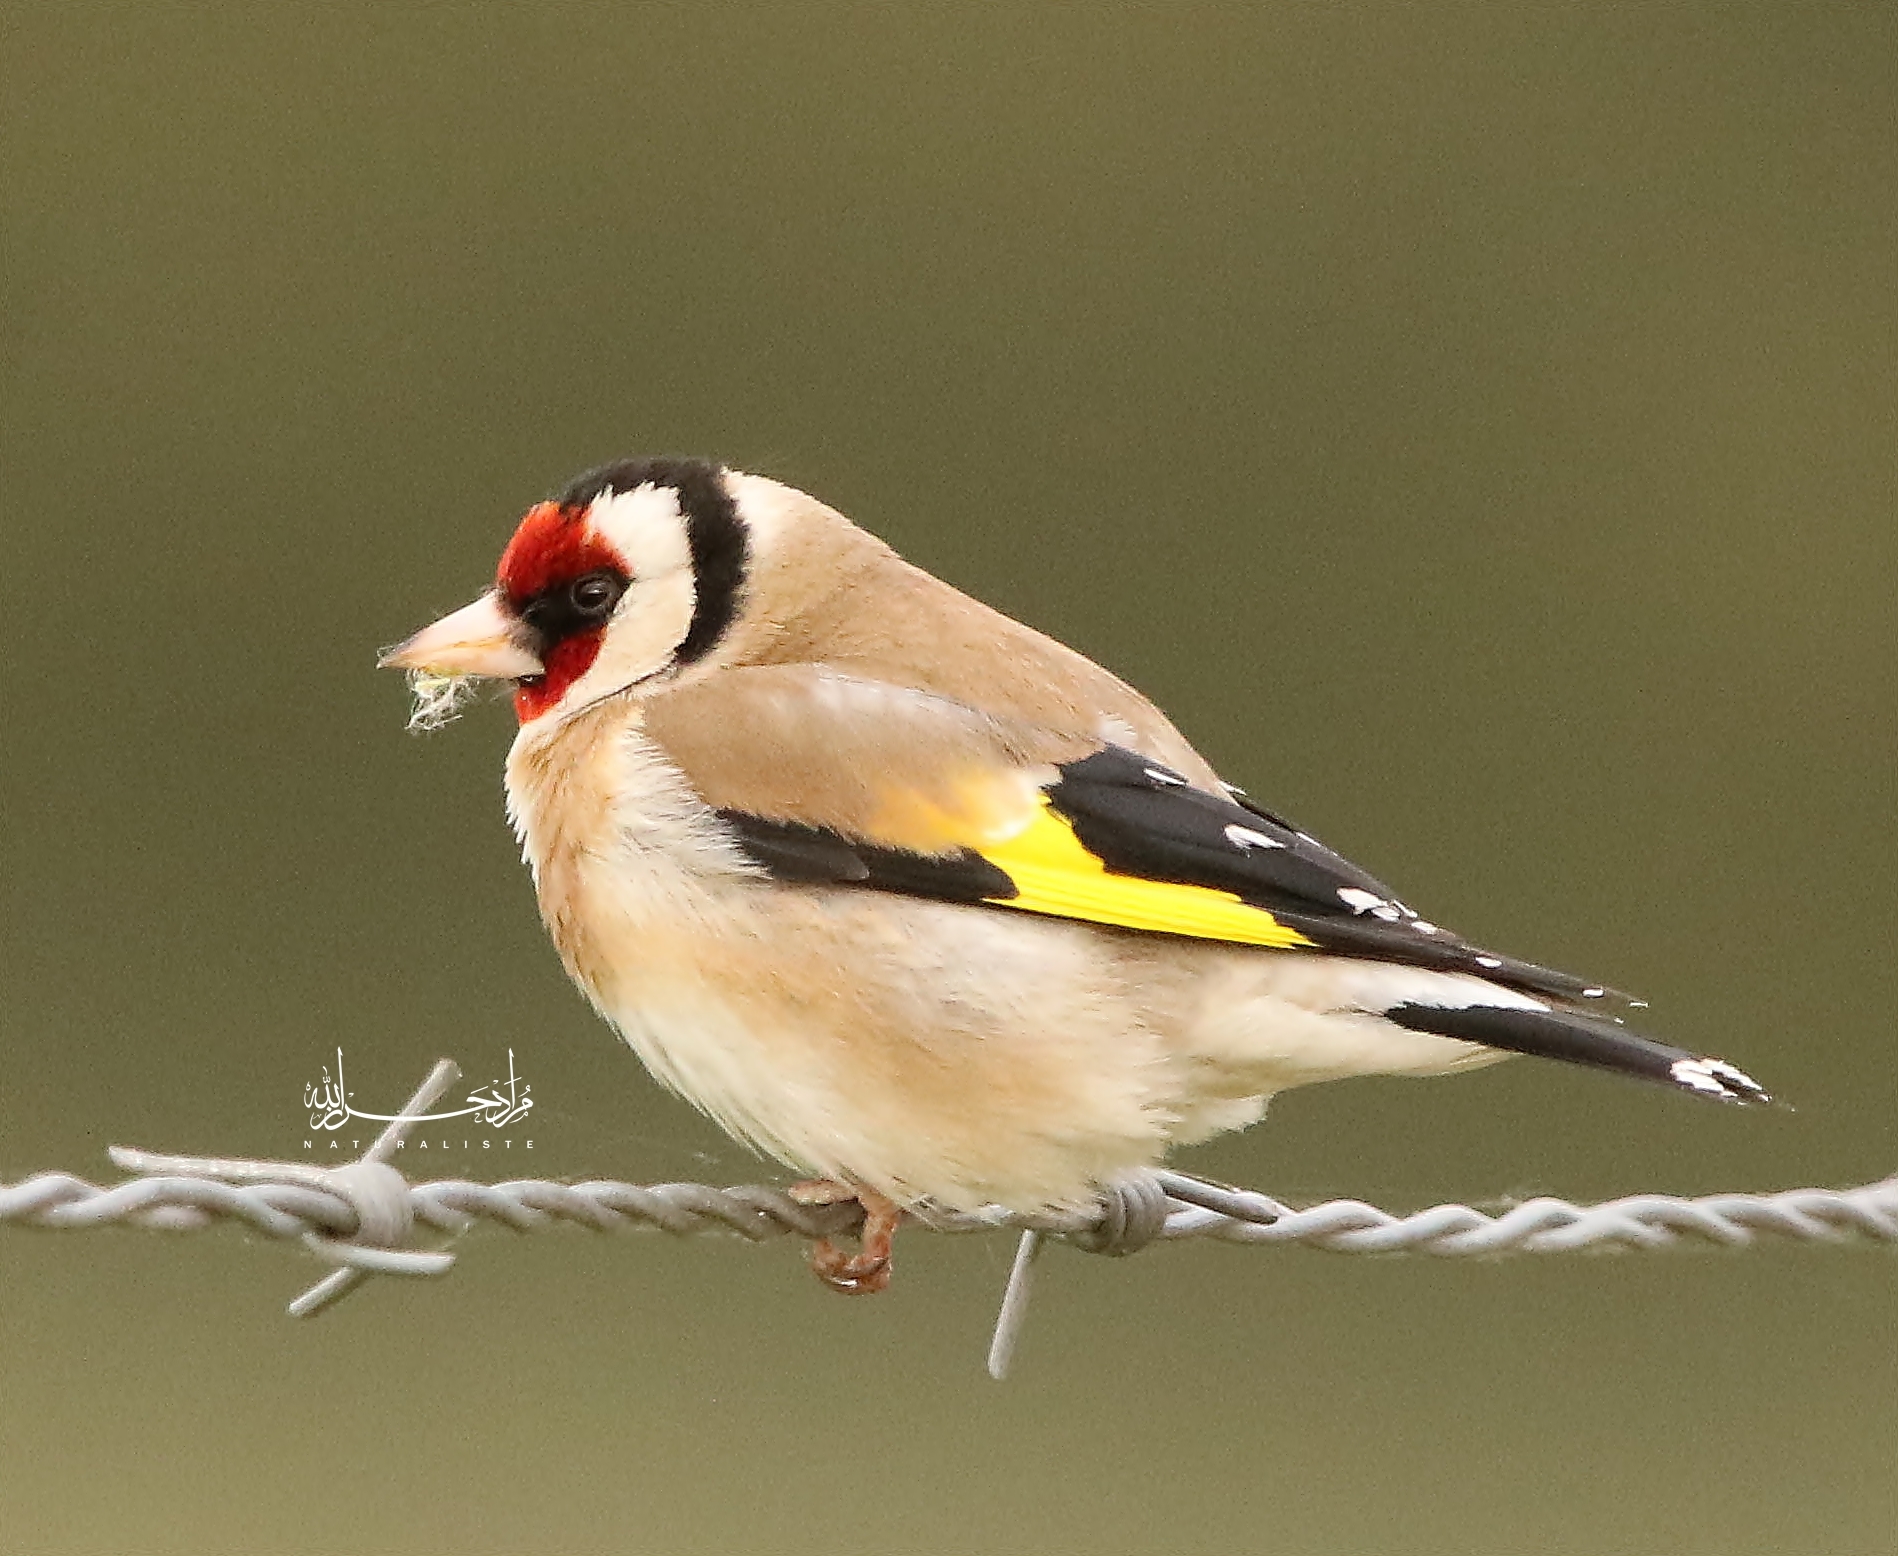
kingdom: Animalia
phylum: Chordata
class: Aves
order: Passeriformes
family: Fringillidae
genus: Carduelis
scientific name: Carduelis carduelis
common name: European goldfinch
